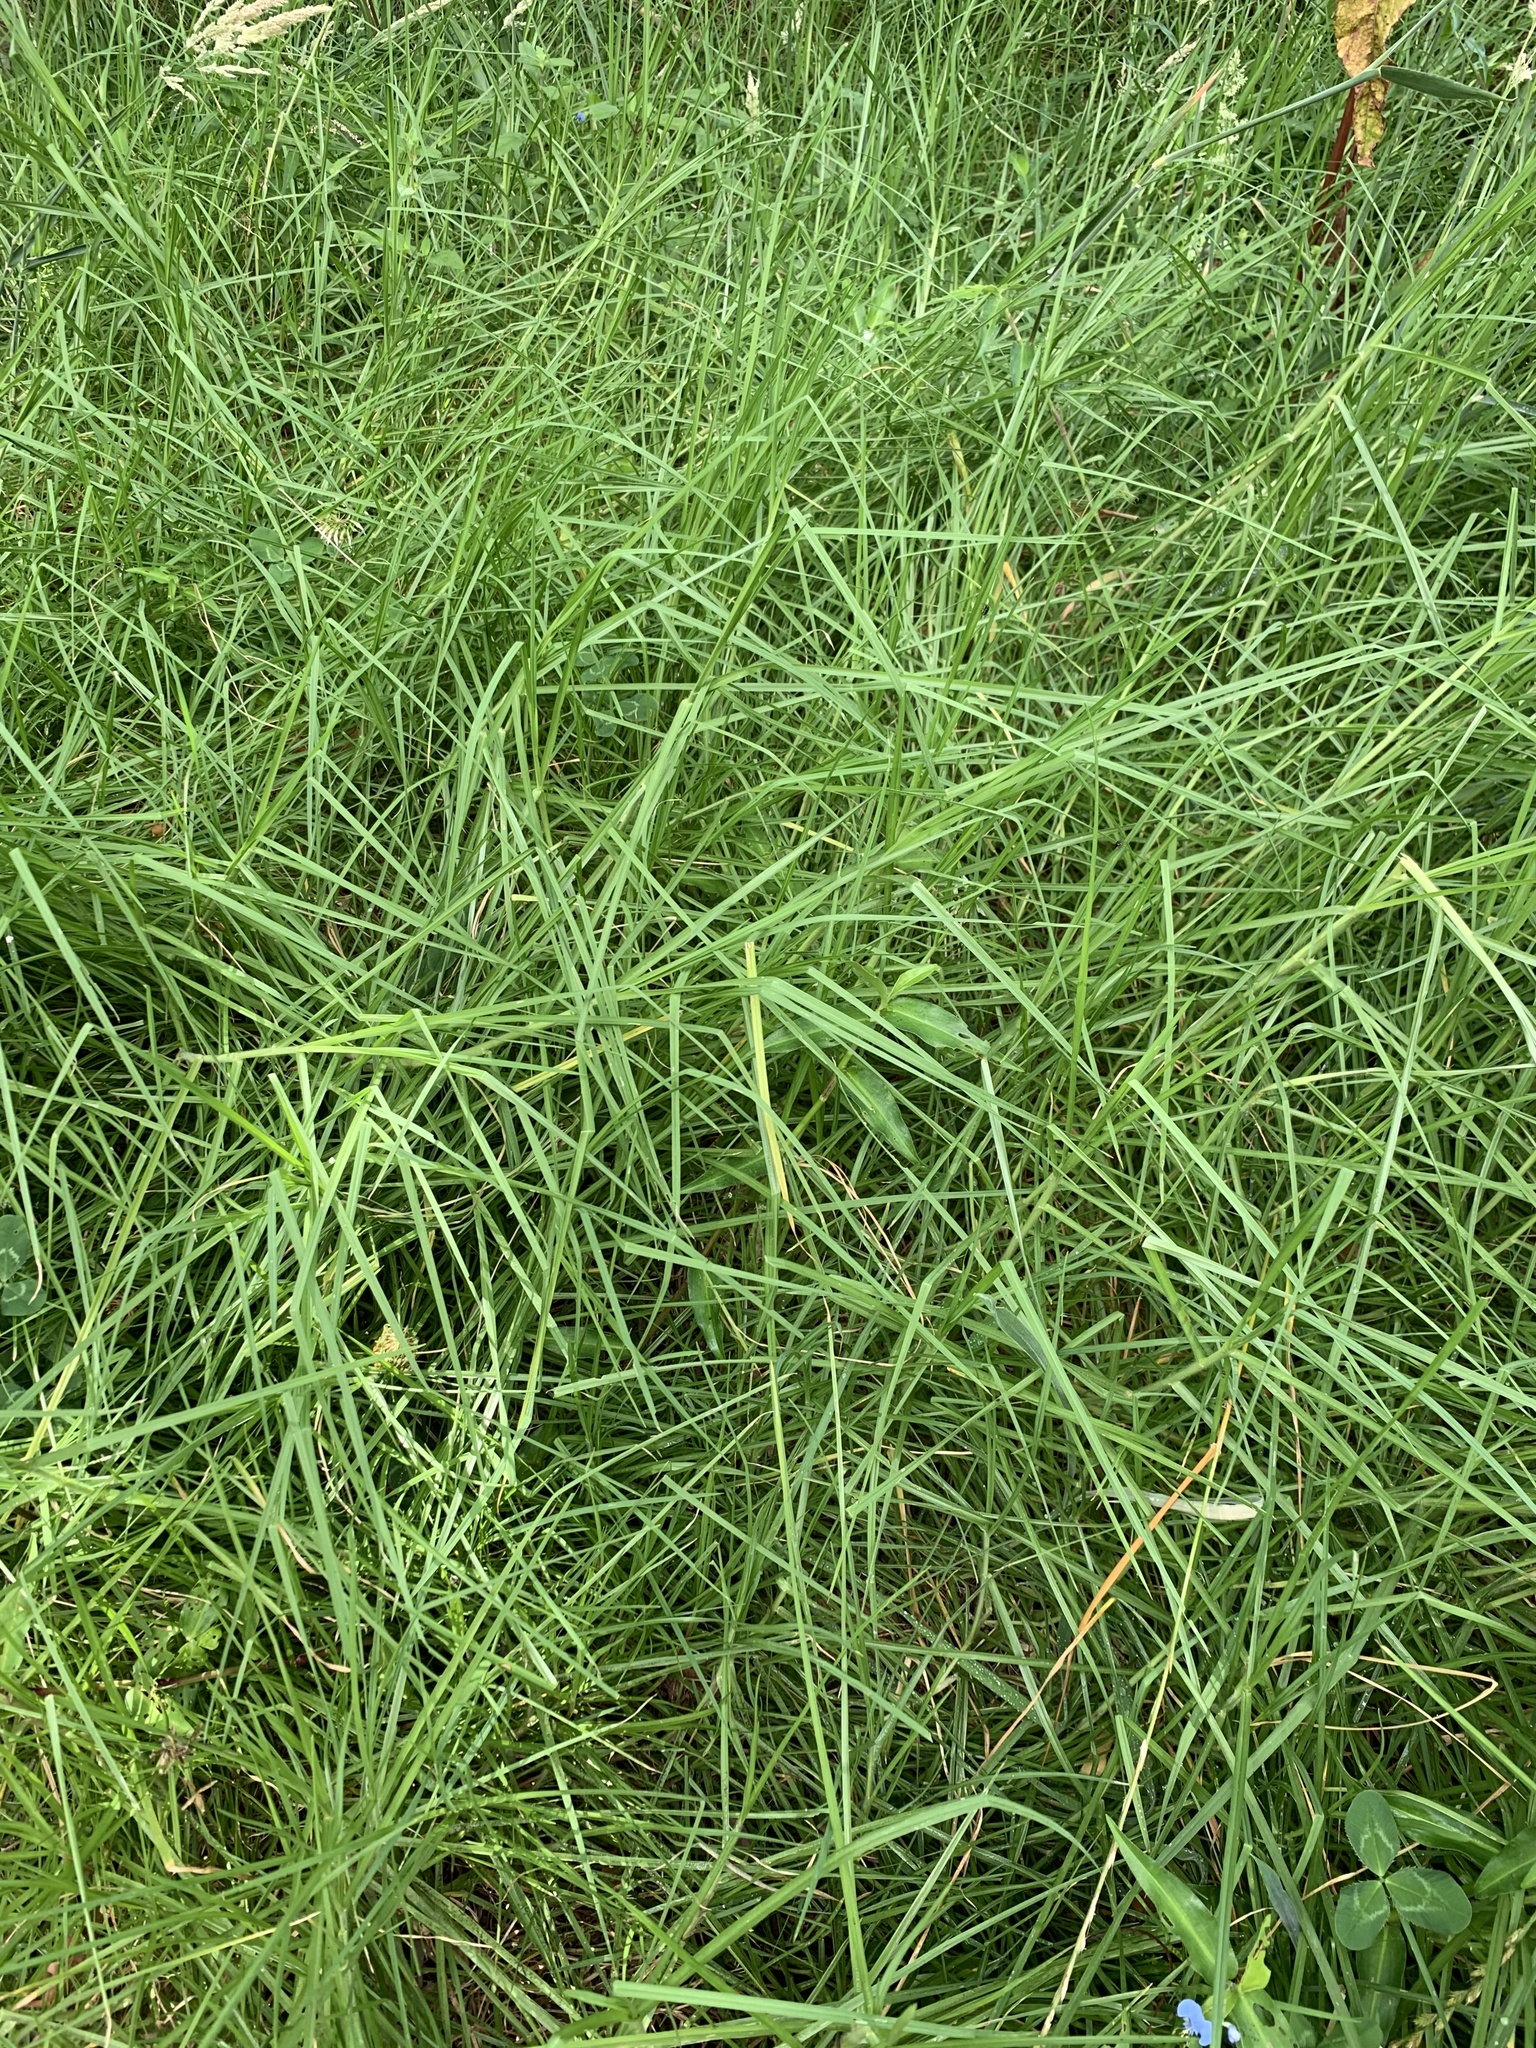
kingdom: Plantae
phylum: Tracheophyta
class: Liliopsida
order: Poales
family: Poaceae
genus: Cenchrus
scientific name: Cenchrus clandestinus
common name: Kikuyugrass
